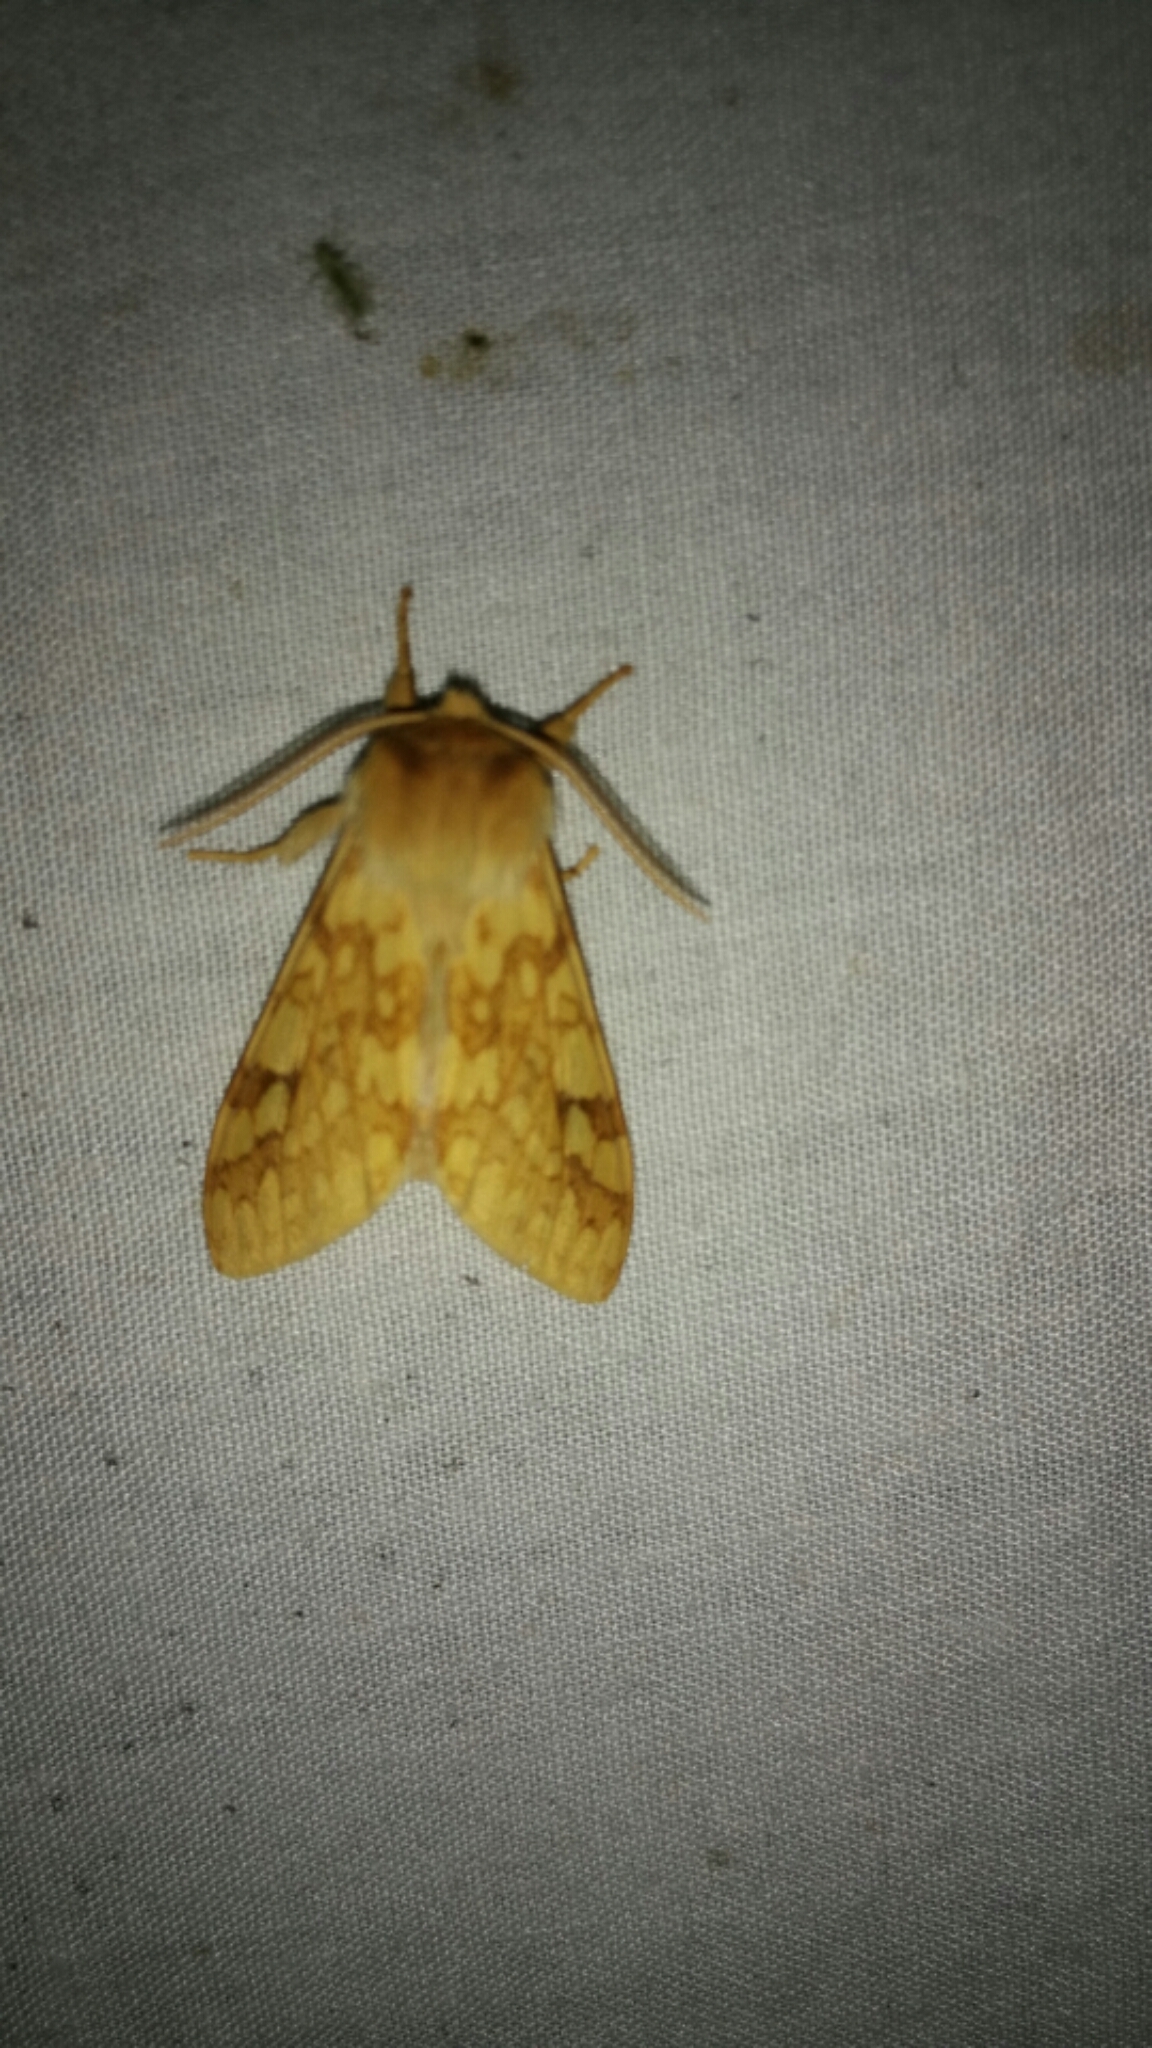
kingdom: Animalia
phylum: Arthropoda
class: Insecta
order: Lepidoptera
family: Erebidae
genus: Lophocampa
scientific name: Lophocampa maculata
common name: Spotted tussock moth
